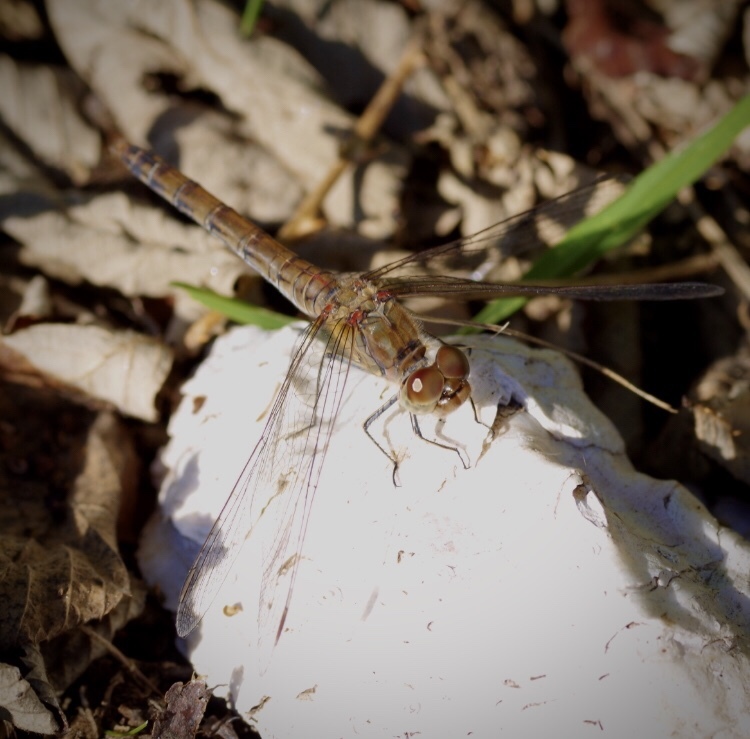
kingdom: Animalia
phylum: Arthropoda
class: Insecta
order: Odonata
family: Libellulidae
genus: Sympetrum
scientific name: Sympetrum striolatum
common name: Common darter
